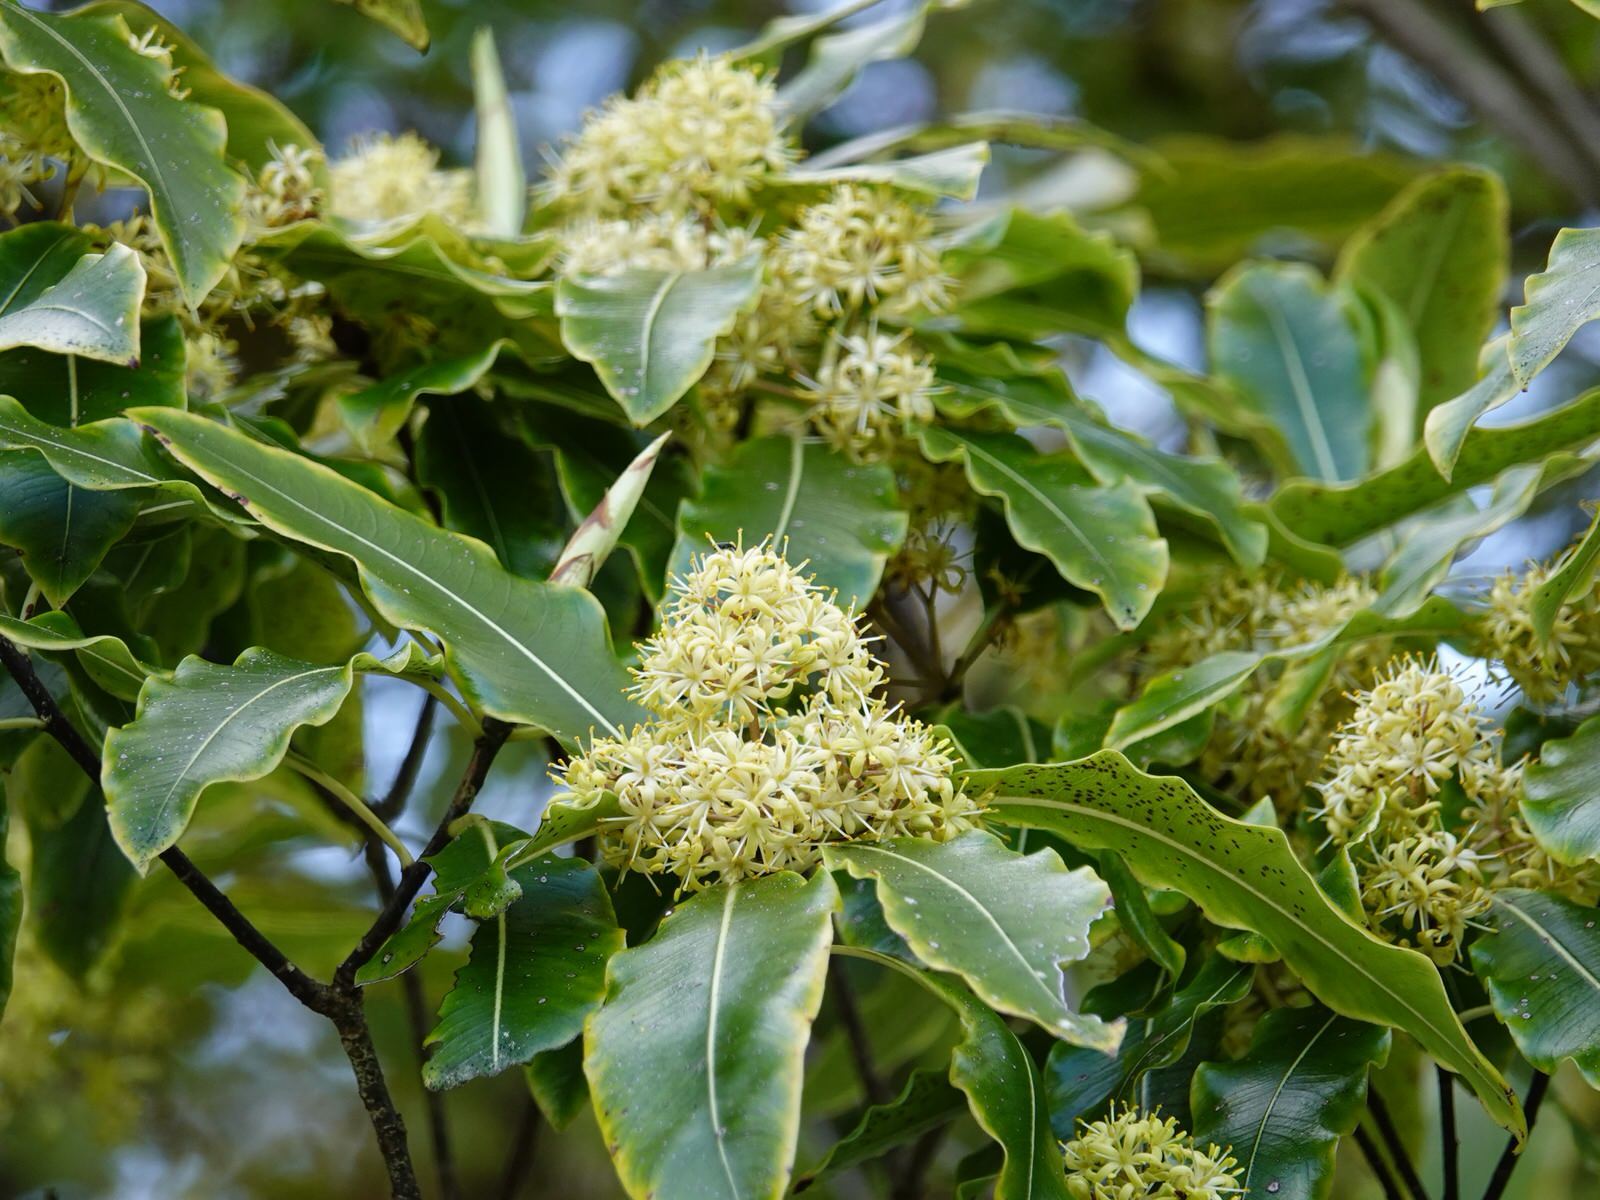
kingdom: Plantae
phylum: Tracheophyta
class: Magnoliopsida
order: Apiales
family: Pittosporaceae
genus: Pittosporum
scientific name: Pittosporum eugenioides
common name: Lemonwood
